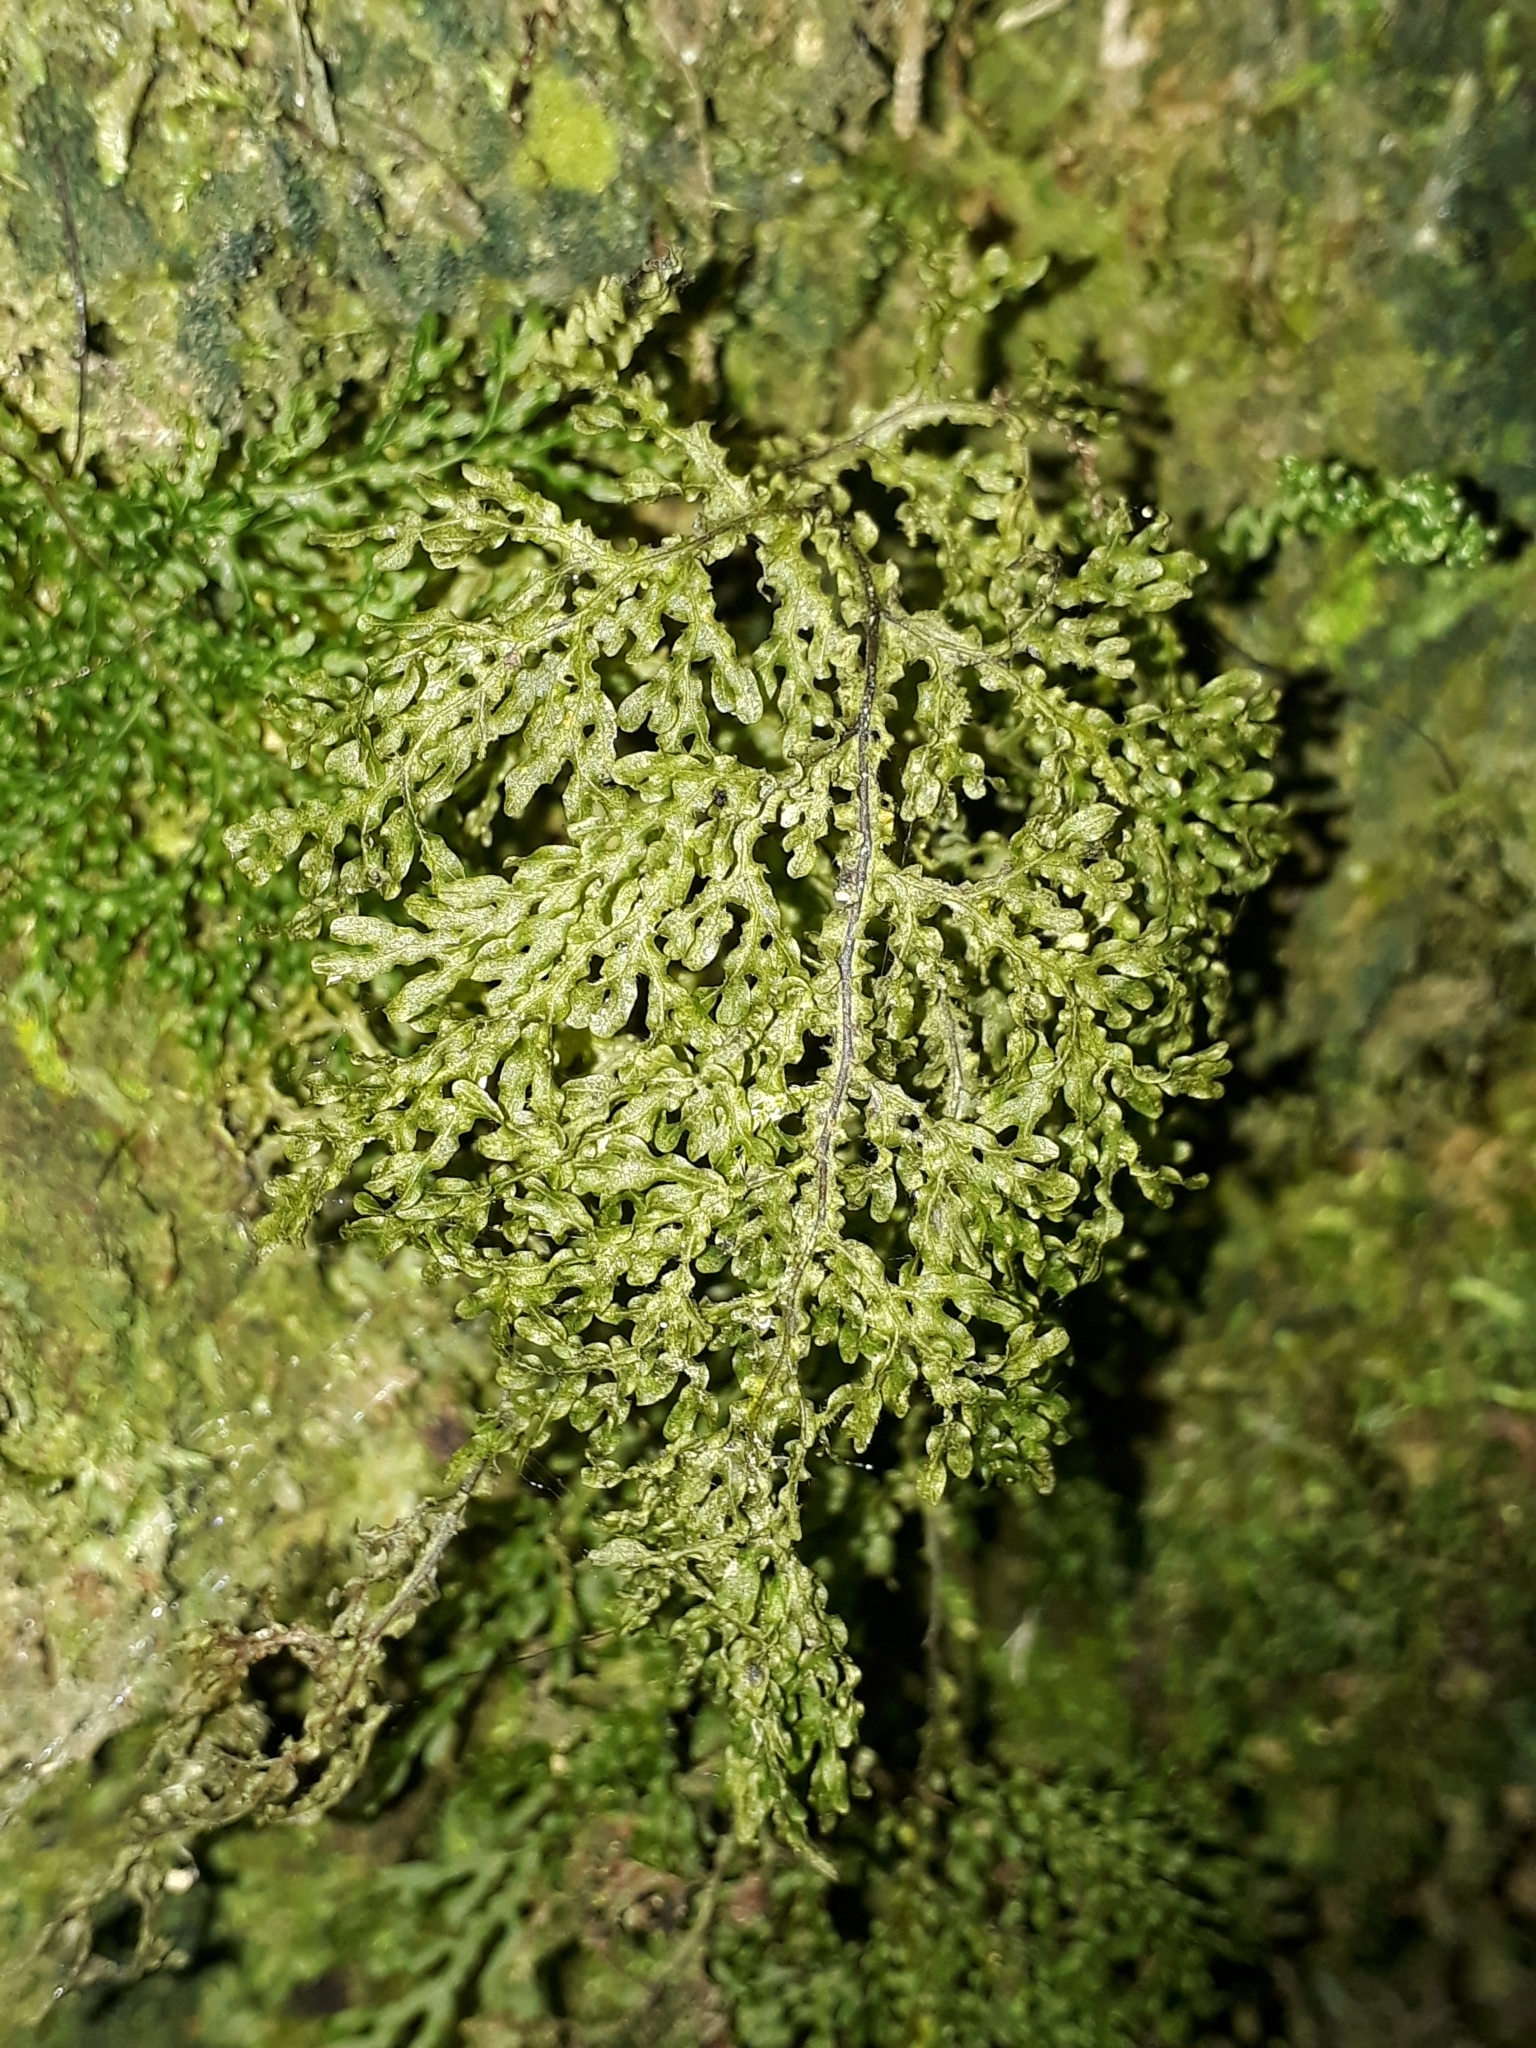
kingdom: Plantae
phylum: Tracheophyta
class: Polypodiopsida
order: Hymenophyllales
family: Hymenophyllaceae
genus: Hymenophyllum
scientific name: Hymenophyllum flexuosum
